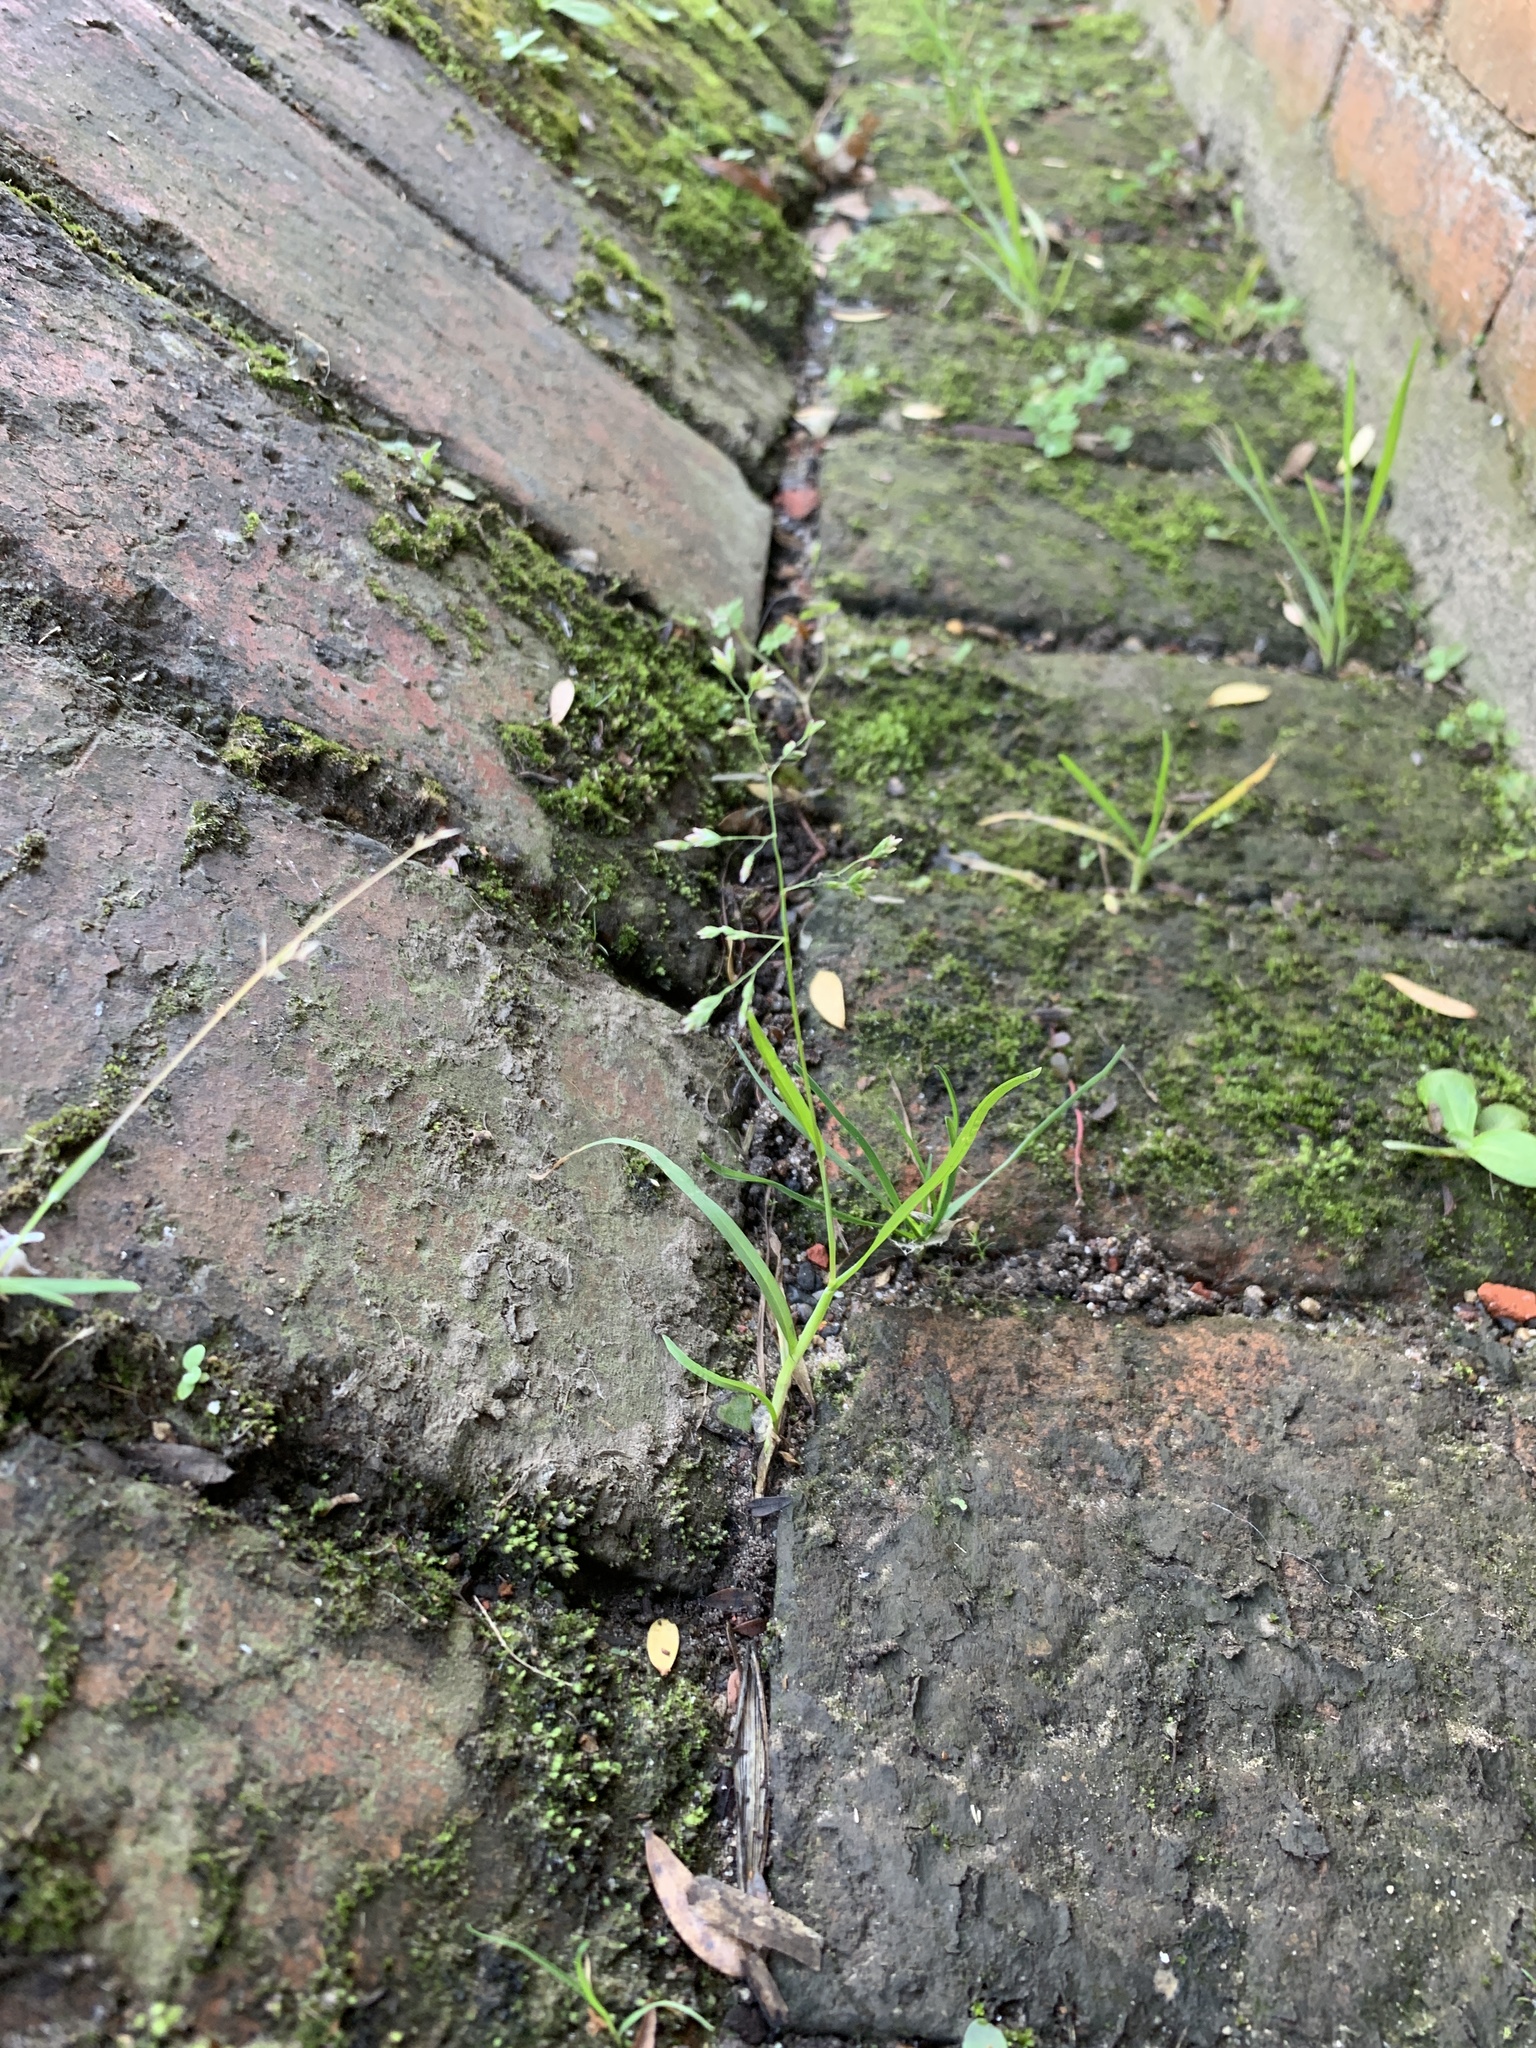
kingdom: Plantae
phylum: Tracheophyta
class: Liliopsida
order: Poales
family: Poaceae
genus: Poa
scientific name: Poa annua
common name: Annual bluegrass
